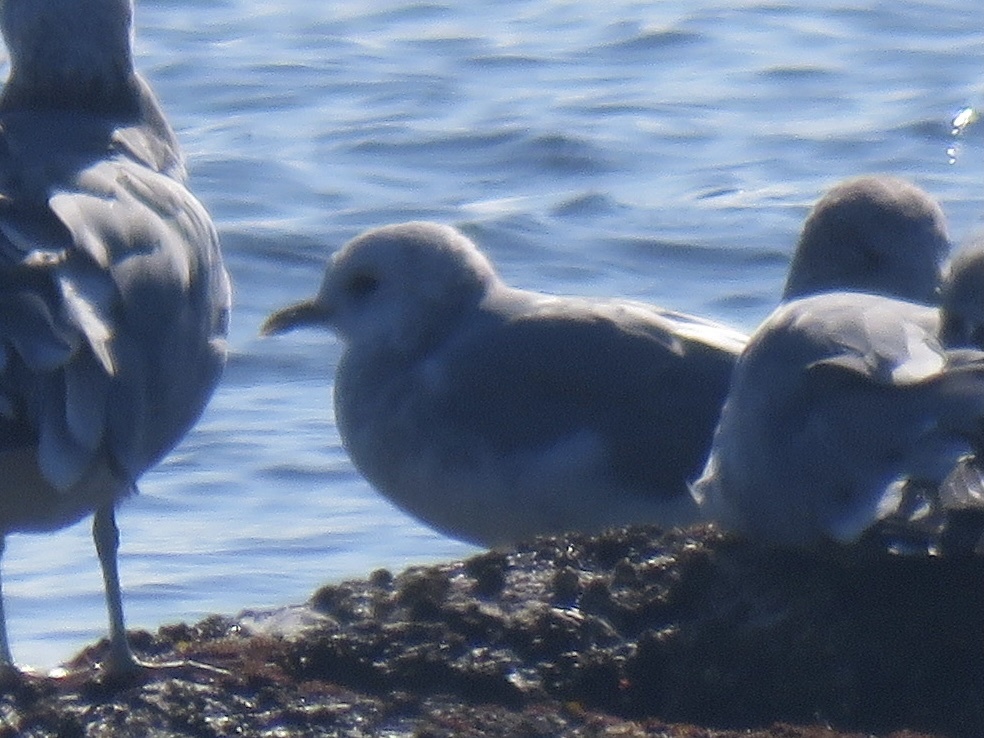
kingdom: Animalia
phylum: Chordata
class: Aves
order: Charadriiformes
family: Laridae
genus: Larus
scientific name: Larus brachyrhynchus
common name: Short-billed gull
